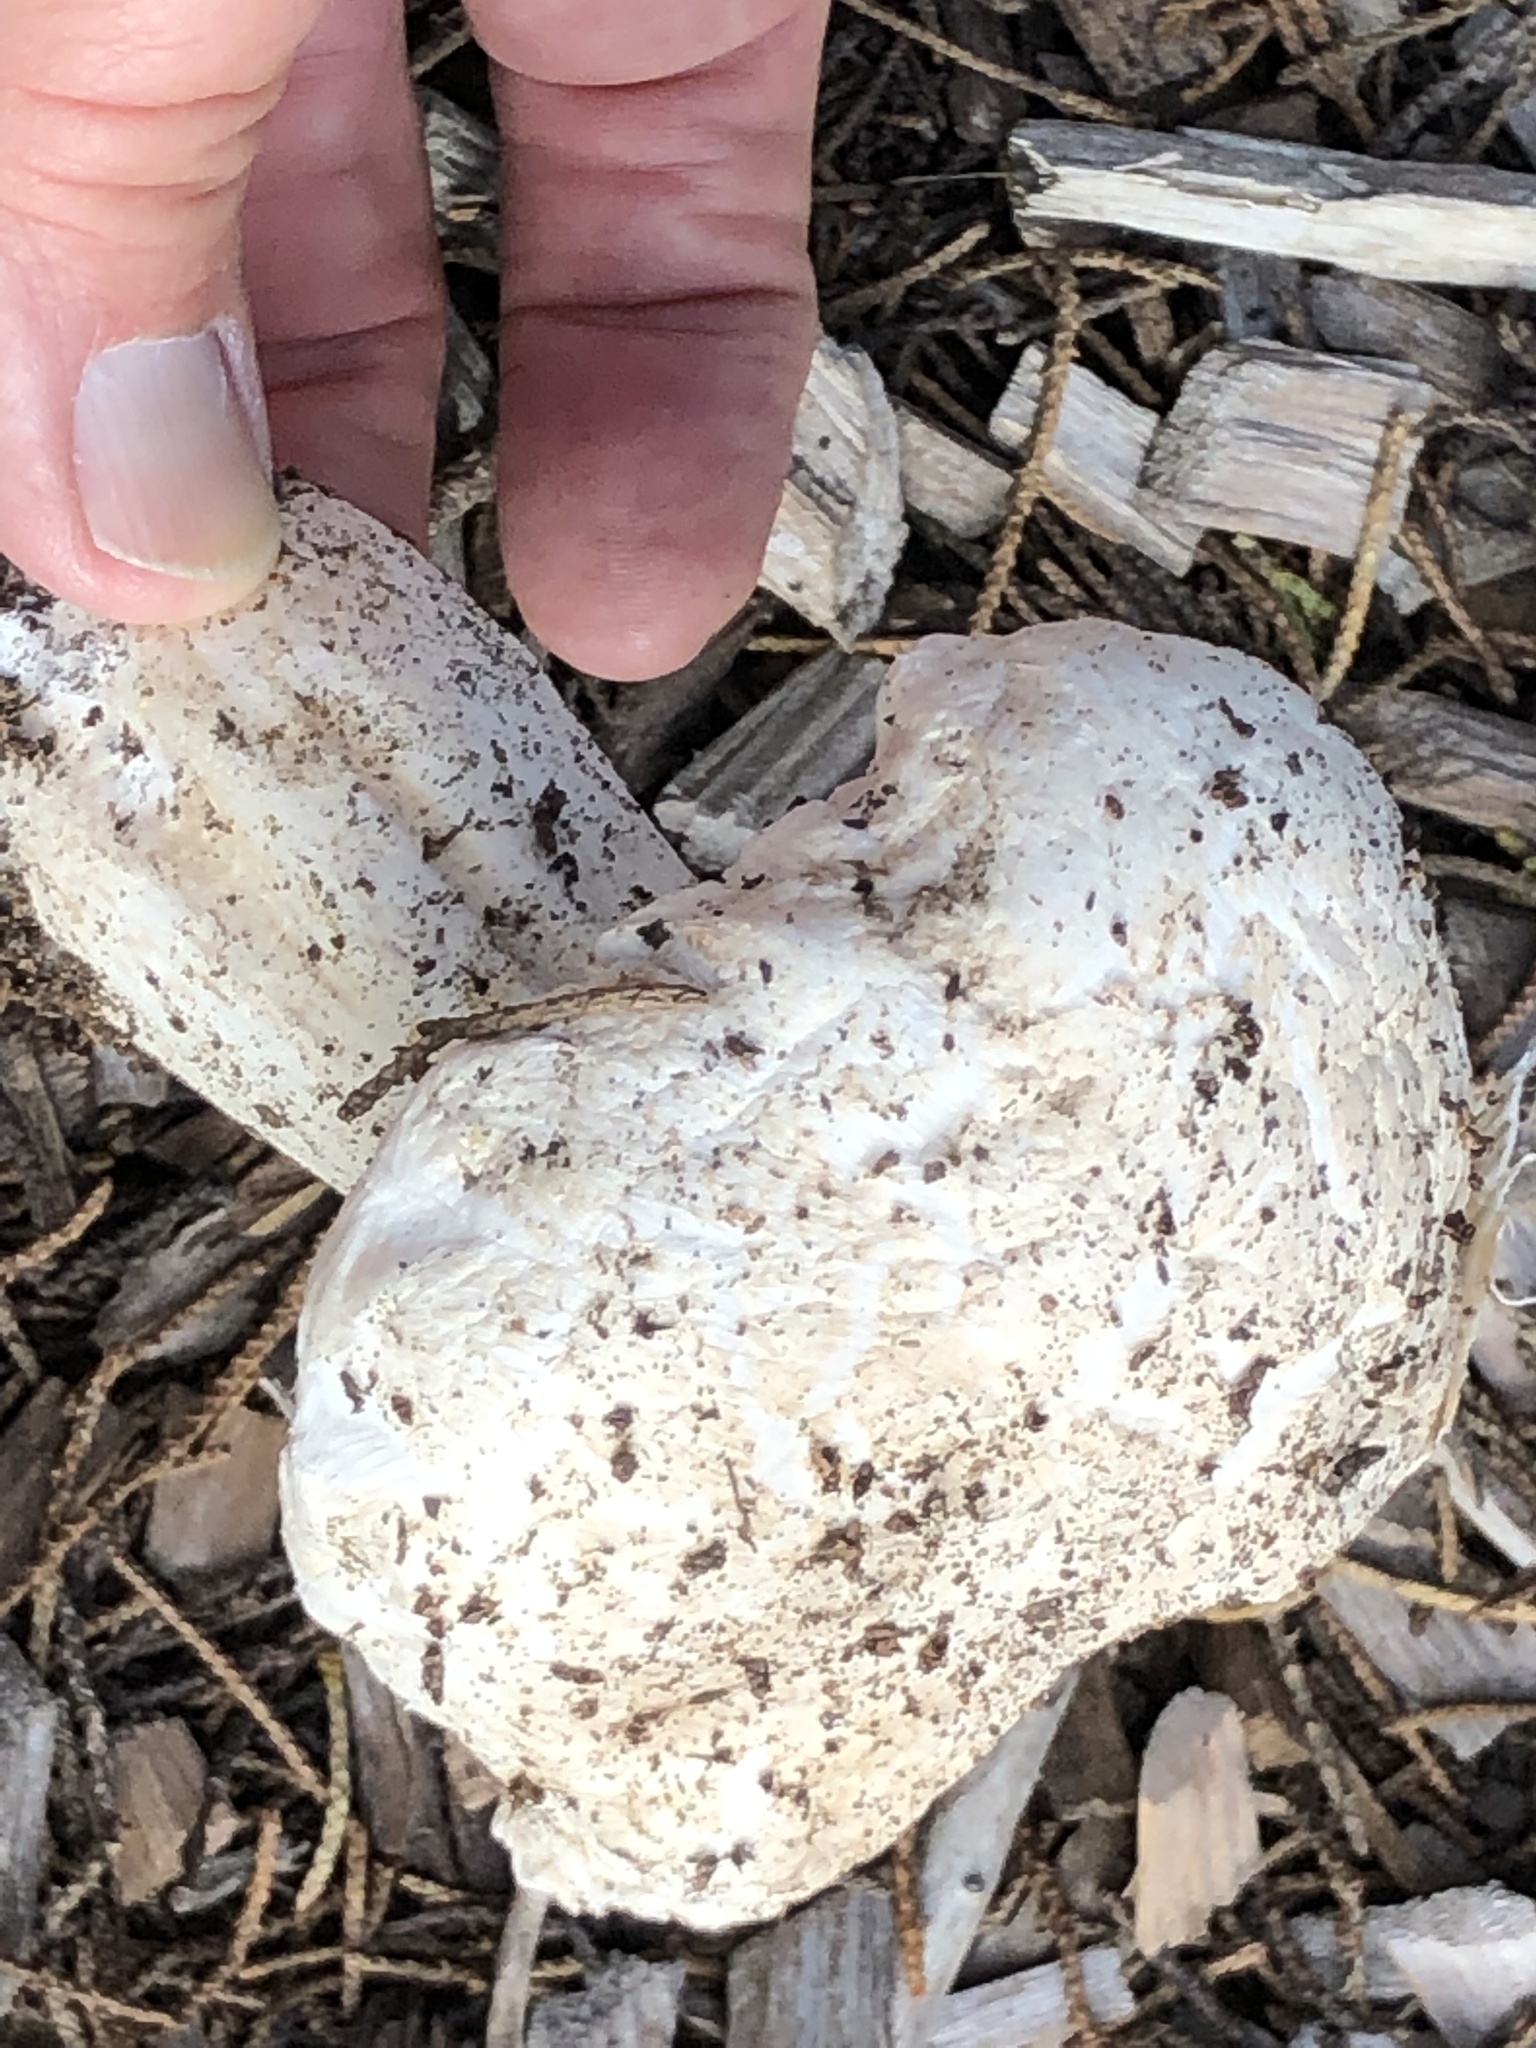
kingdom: Fungi
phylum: Basidiomycota
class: Agaricomycetes
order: Agaricales
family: Agaricaceae
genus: Agaricus
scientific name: Agaricus bernardii
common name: Salty mushroom
